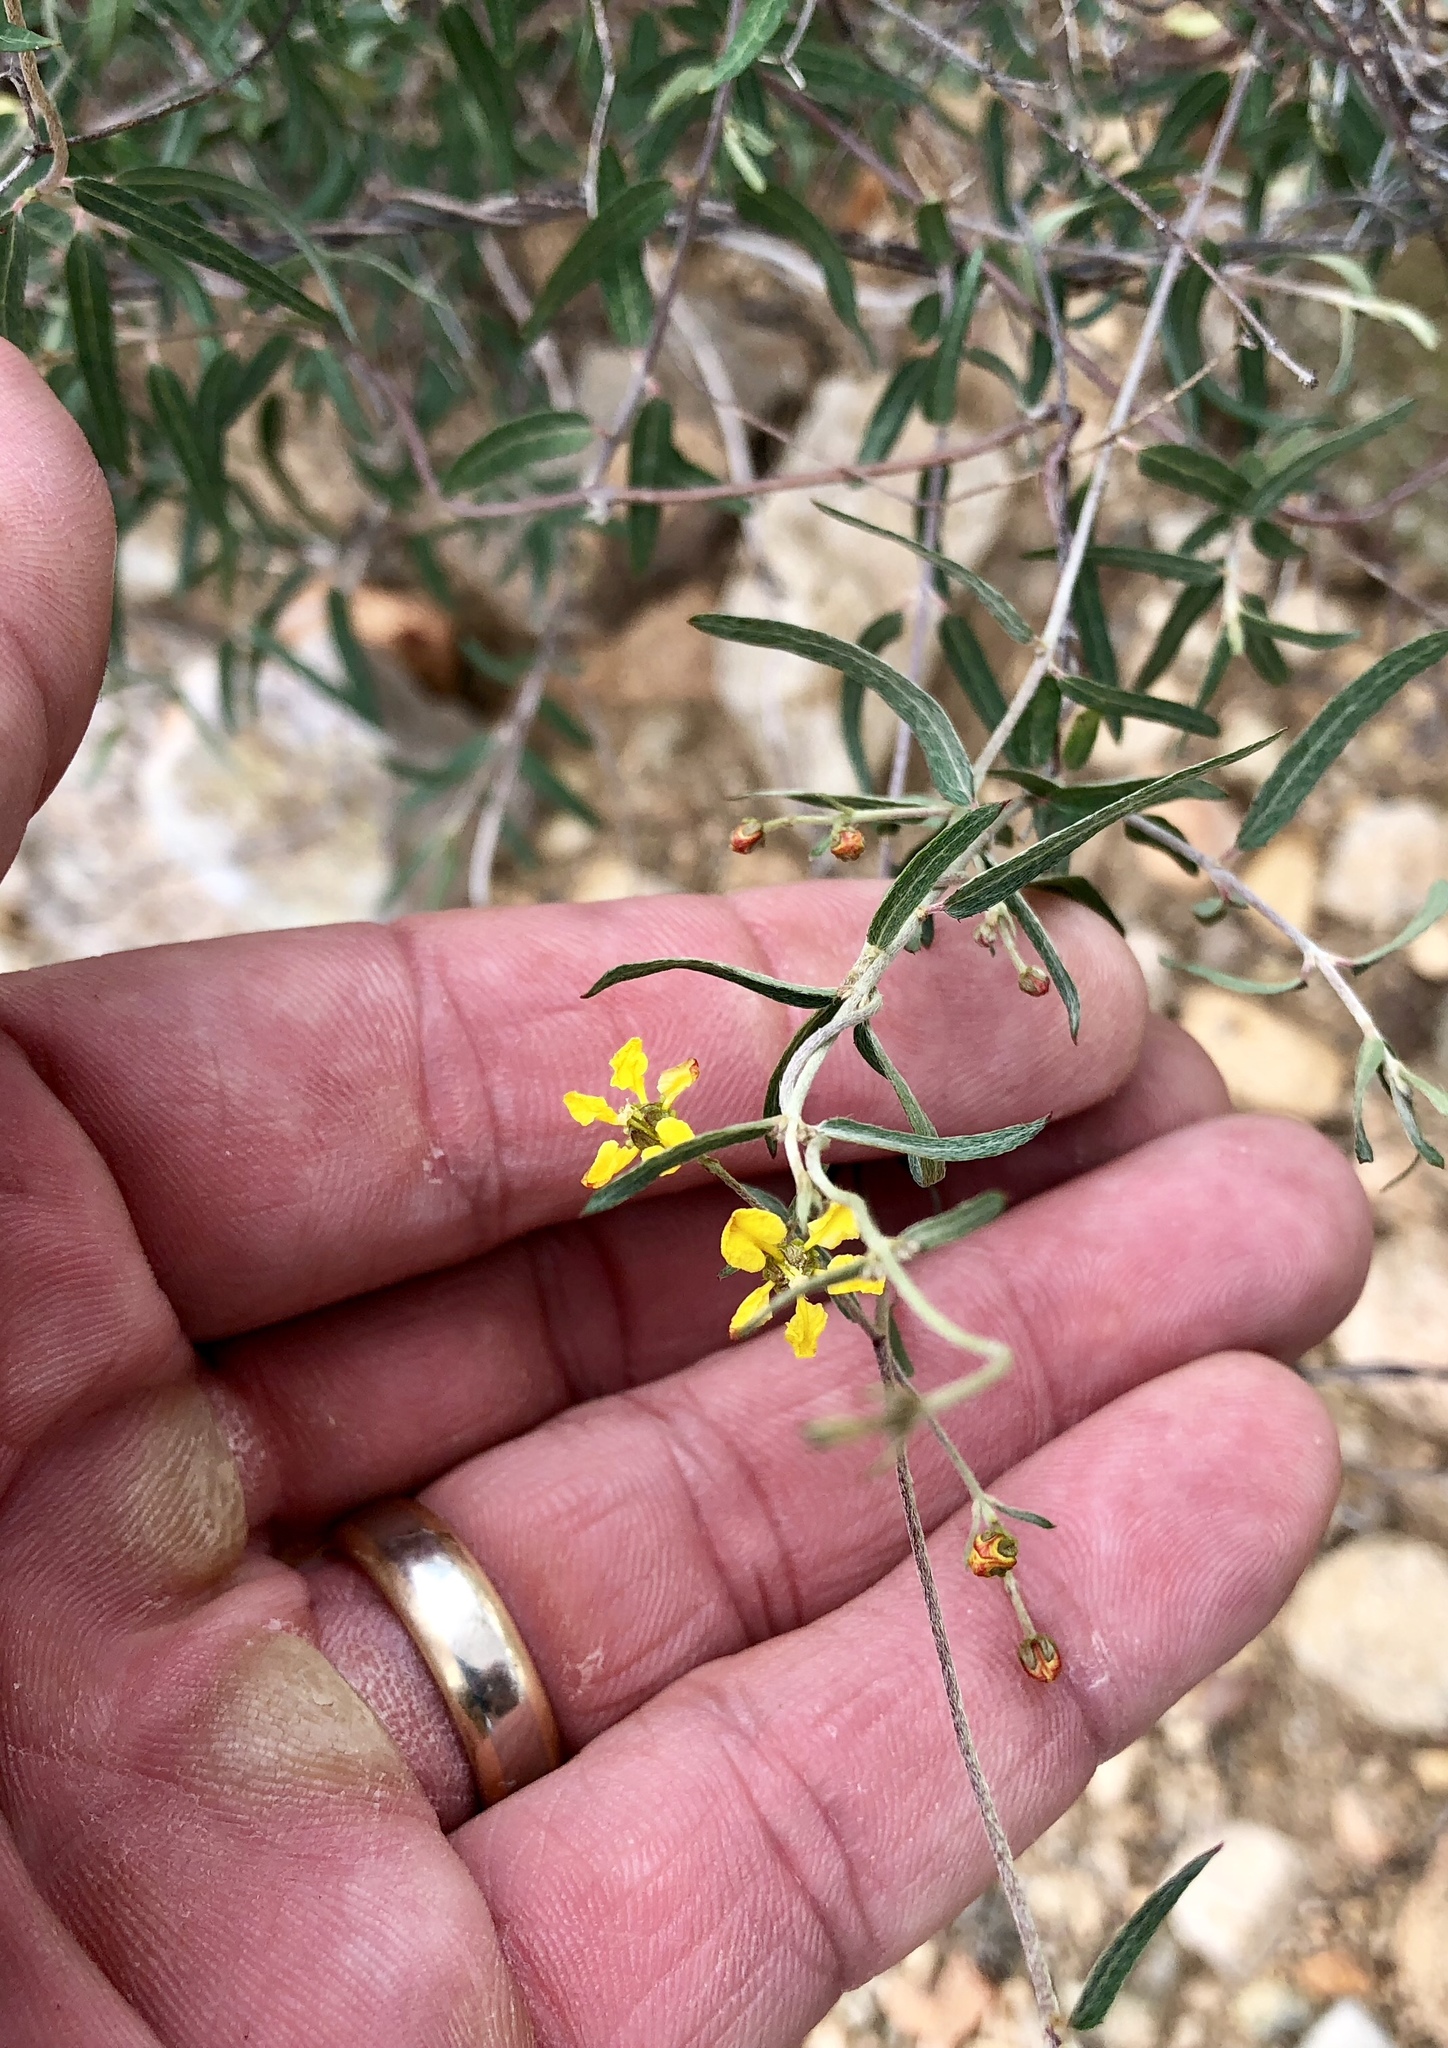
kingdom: Plantae
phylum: Tracheophyta
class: Magnoliopsida
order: Malpighiales
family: Malpighiaceae
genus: Cottsia
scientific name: Cottsia gracilis
